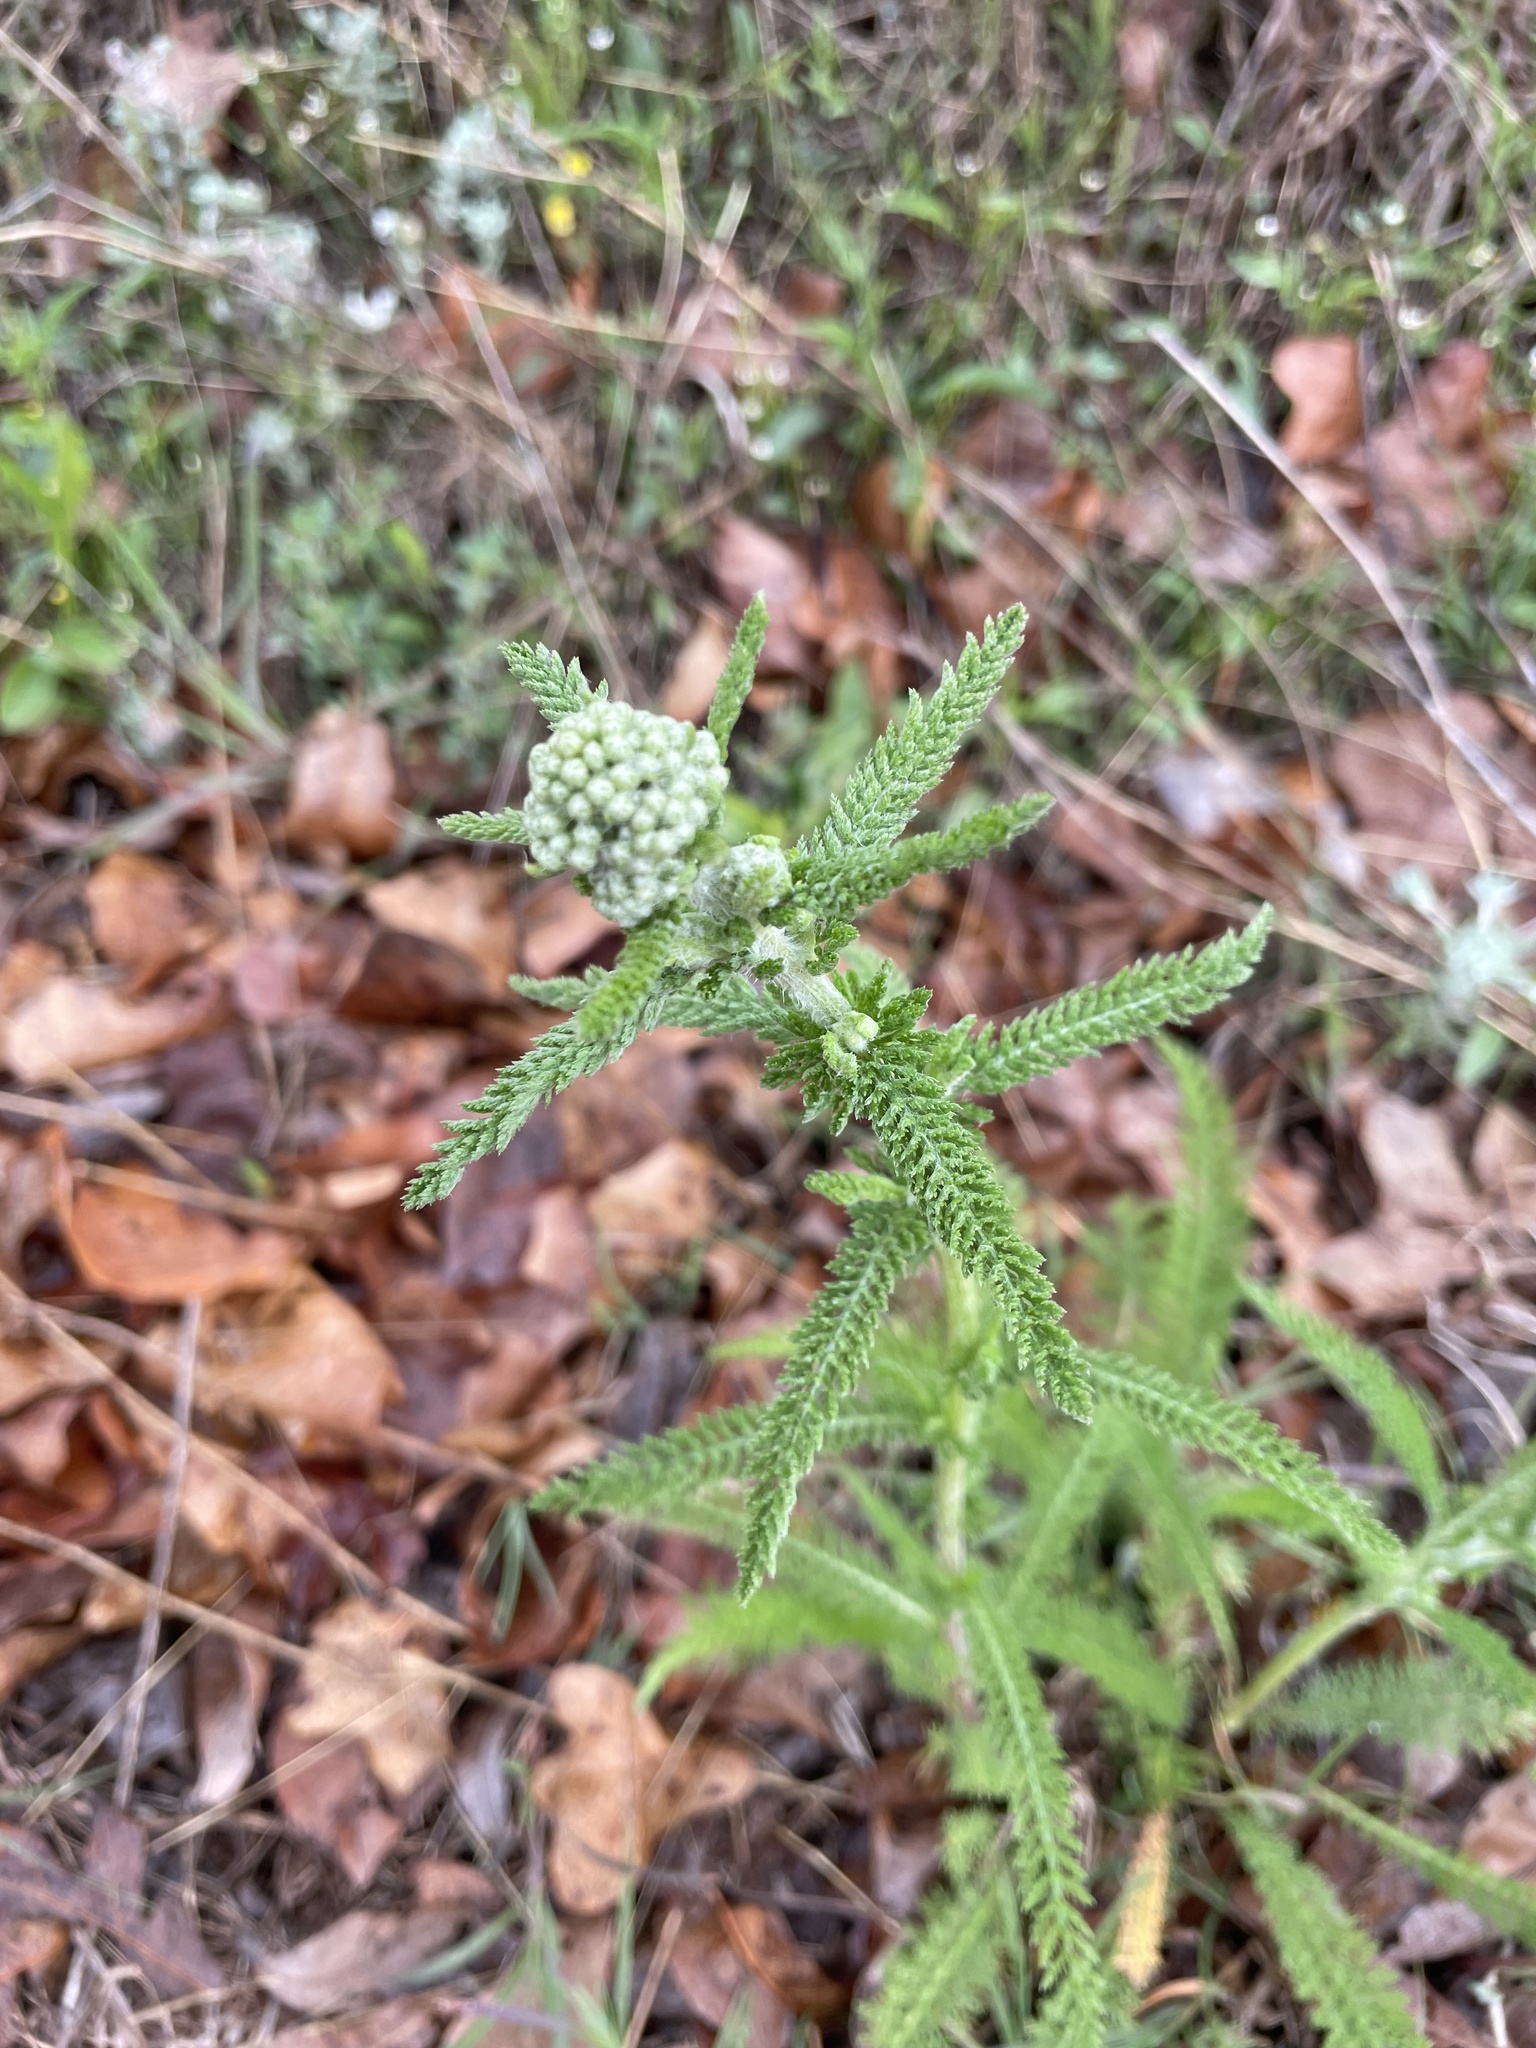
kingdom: Plantae
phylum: Tracheophyta
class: Magnoliopsida
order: Asterales
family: Asteraceae
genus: Achillea
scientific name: Achillea millefolium
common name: Yarrow
